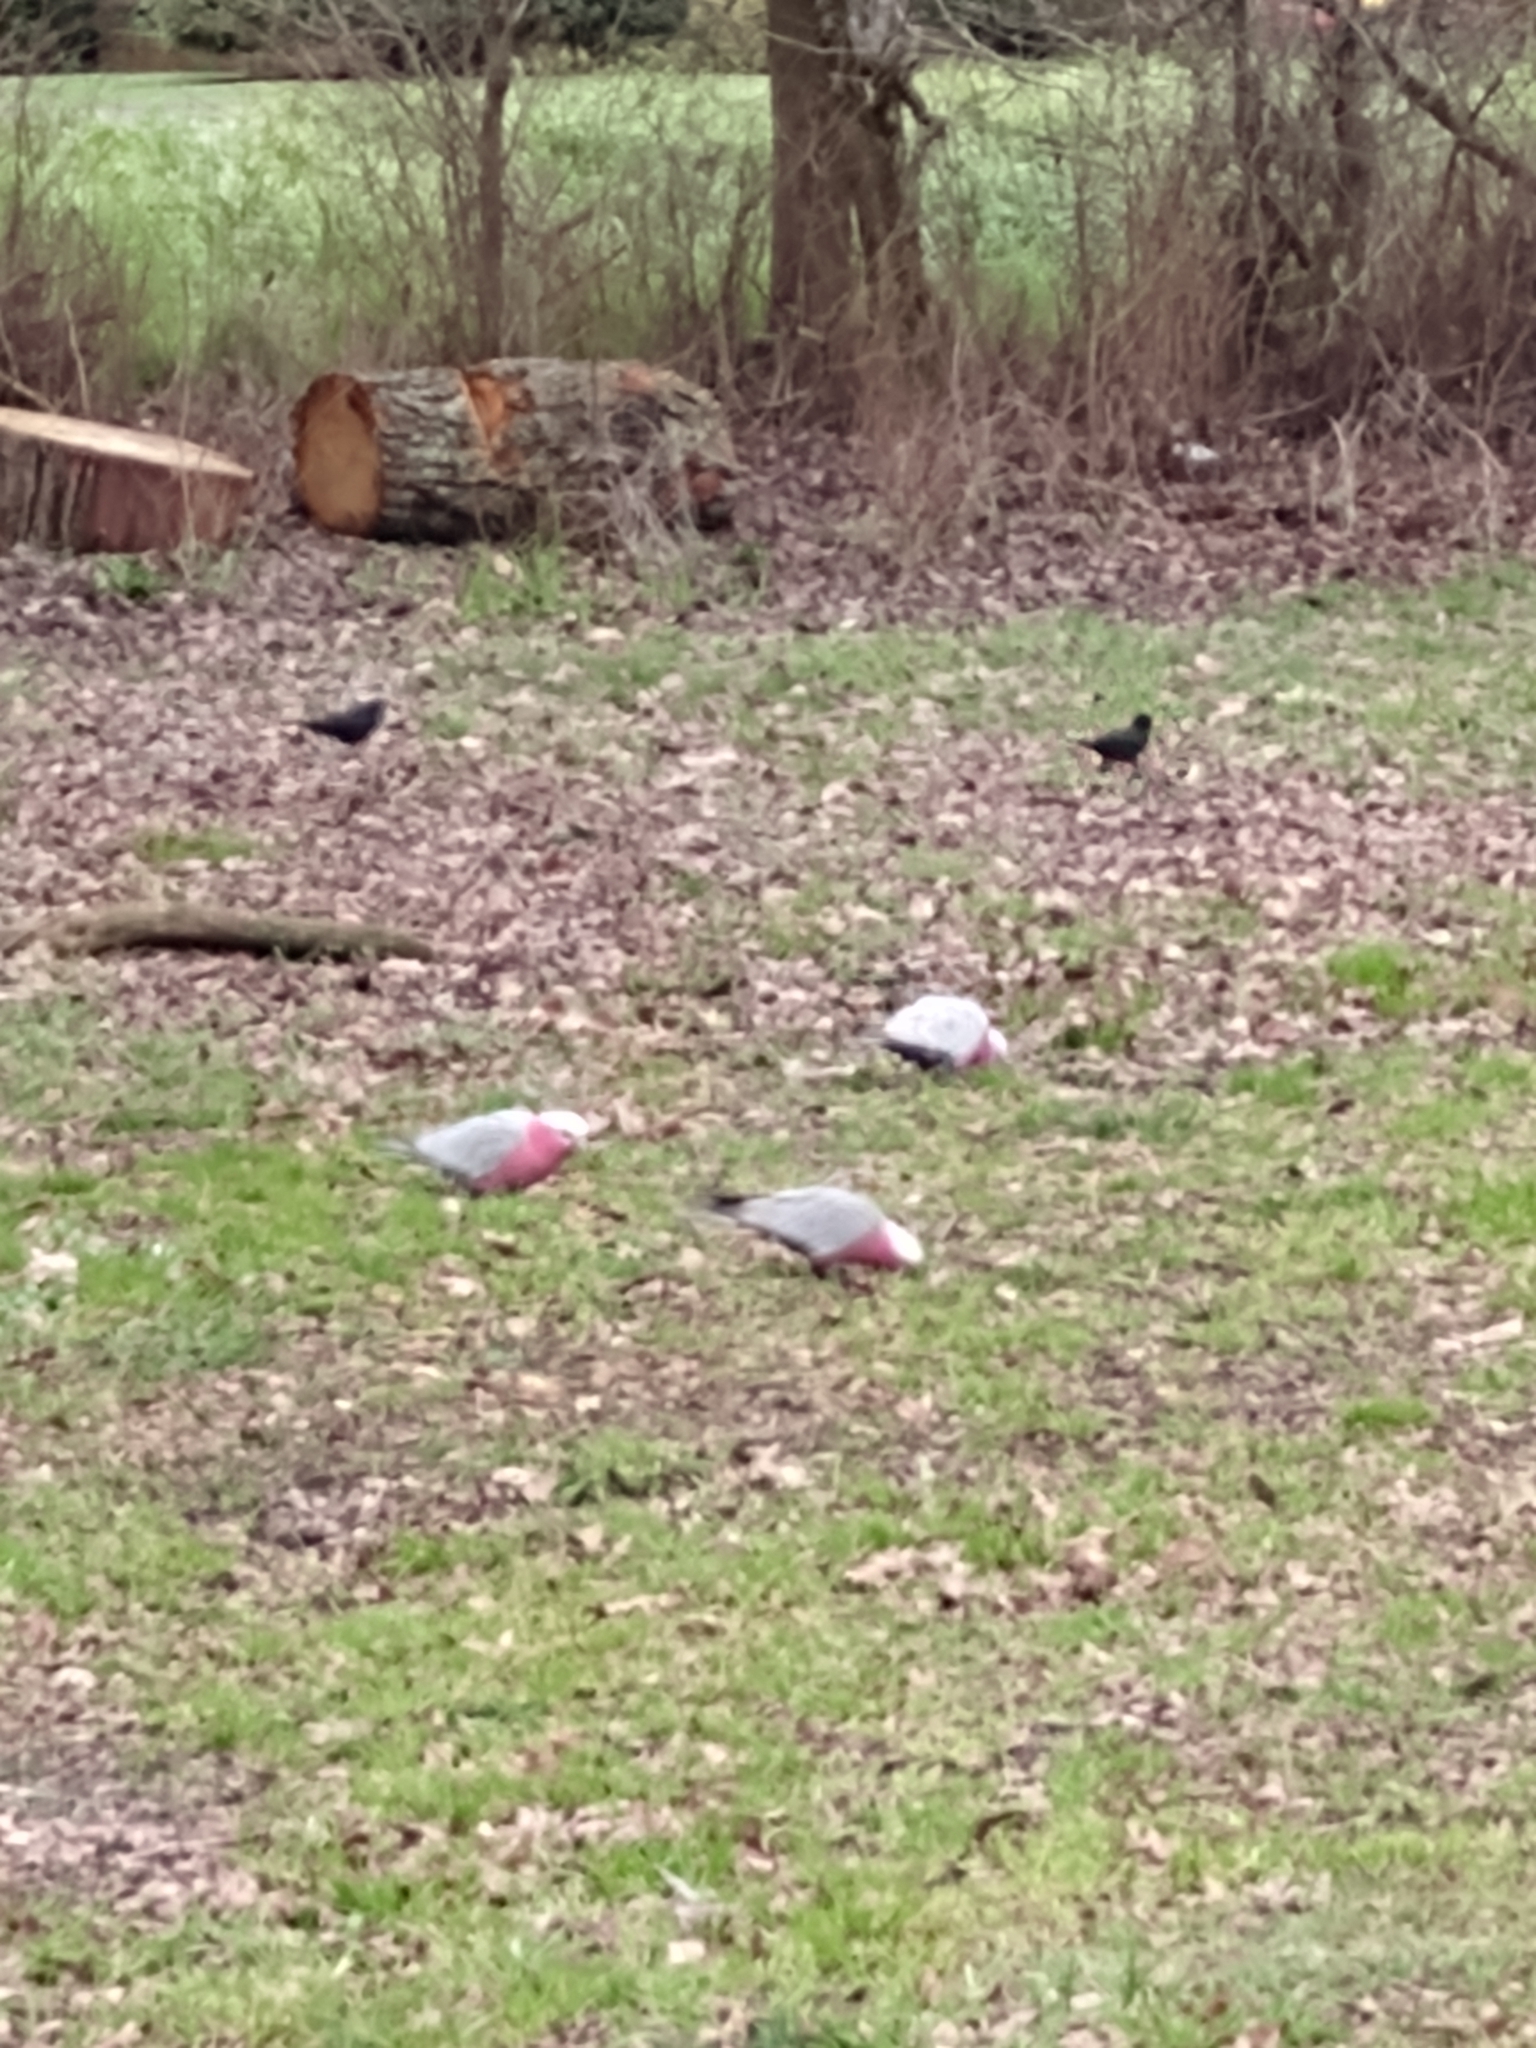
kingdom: Animalia
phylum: Chordata
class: Aves
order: Psittaciformes
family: Psittacidae
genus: Eolophus
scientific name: Eolophus roseicapilla
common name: Galah
